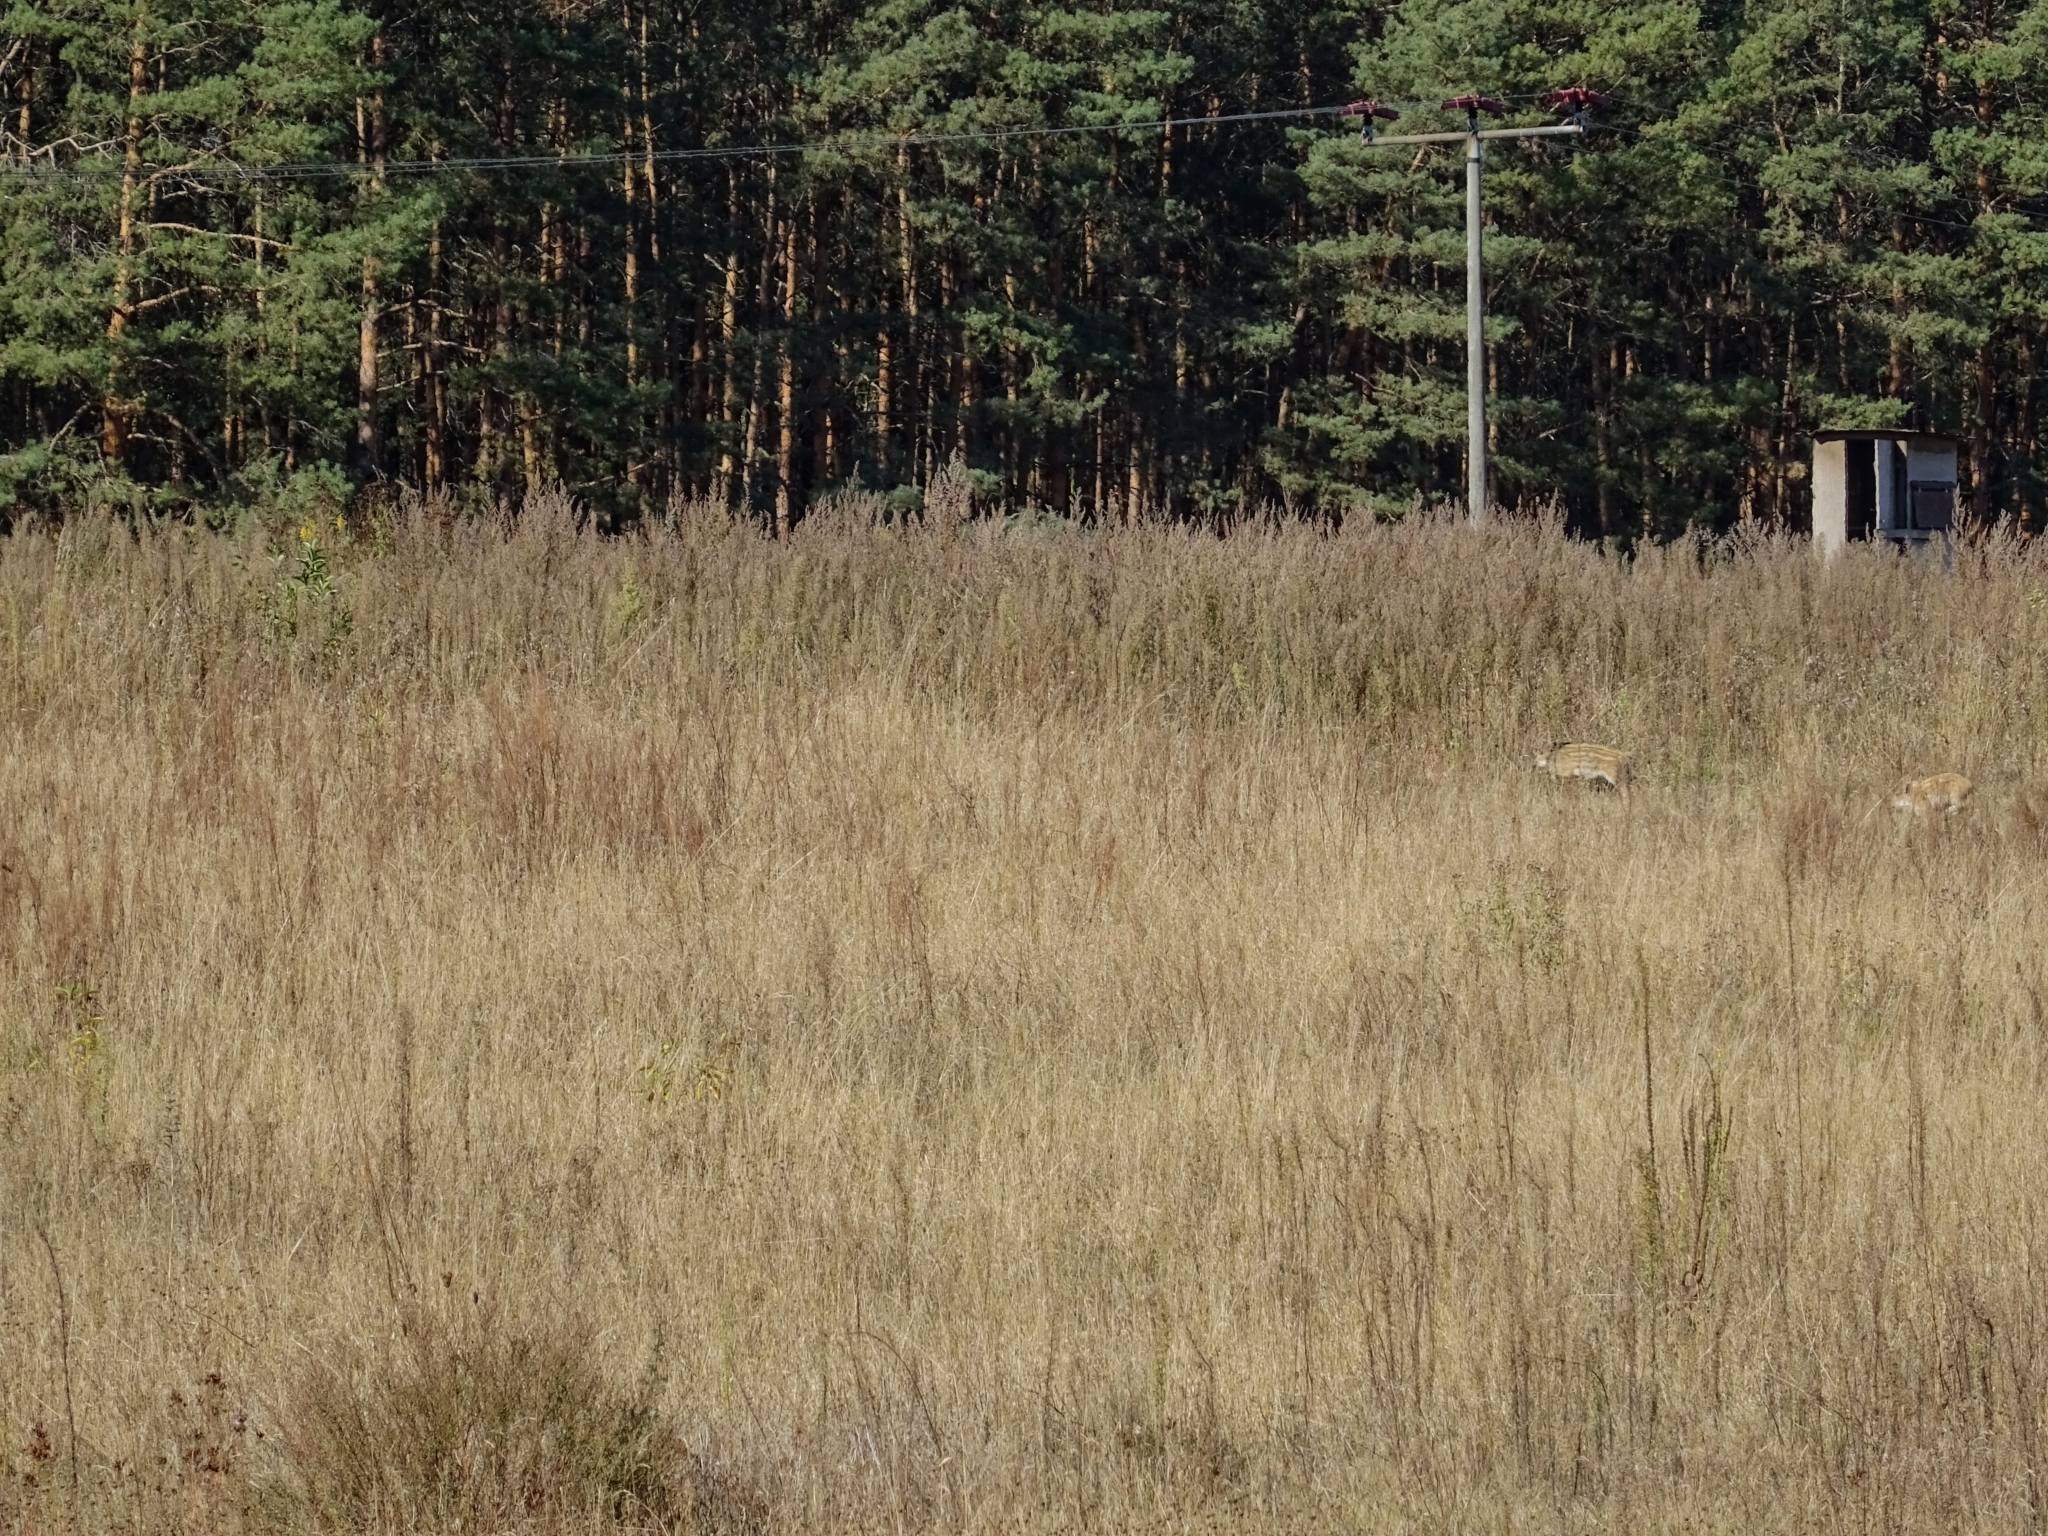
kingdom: Animalia
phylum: Chordata
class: Mammalia
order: Artiodactyla
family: Suidae
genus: Sus
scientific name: Sus scrofa
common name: Wild boar
